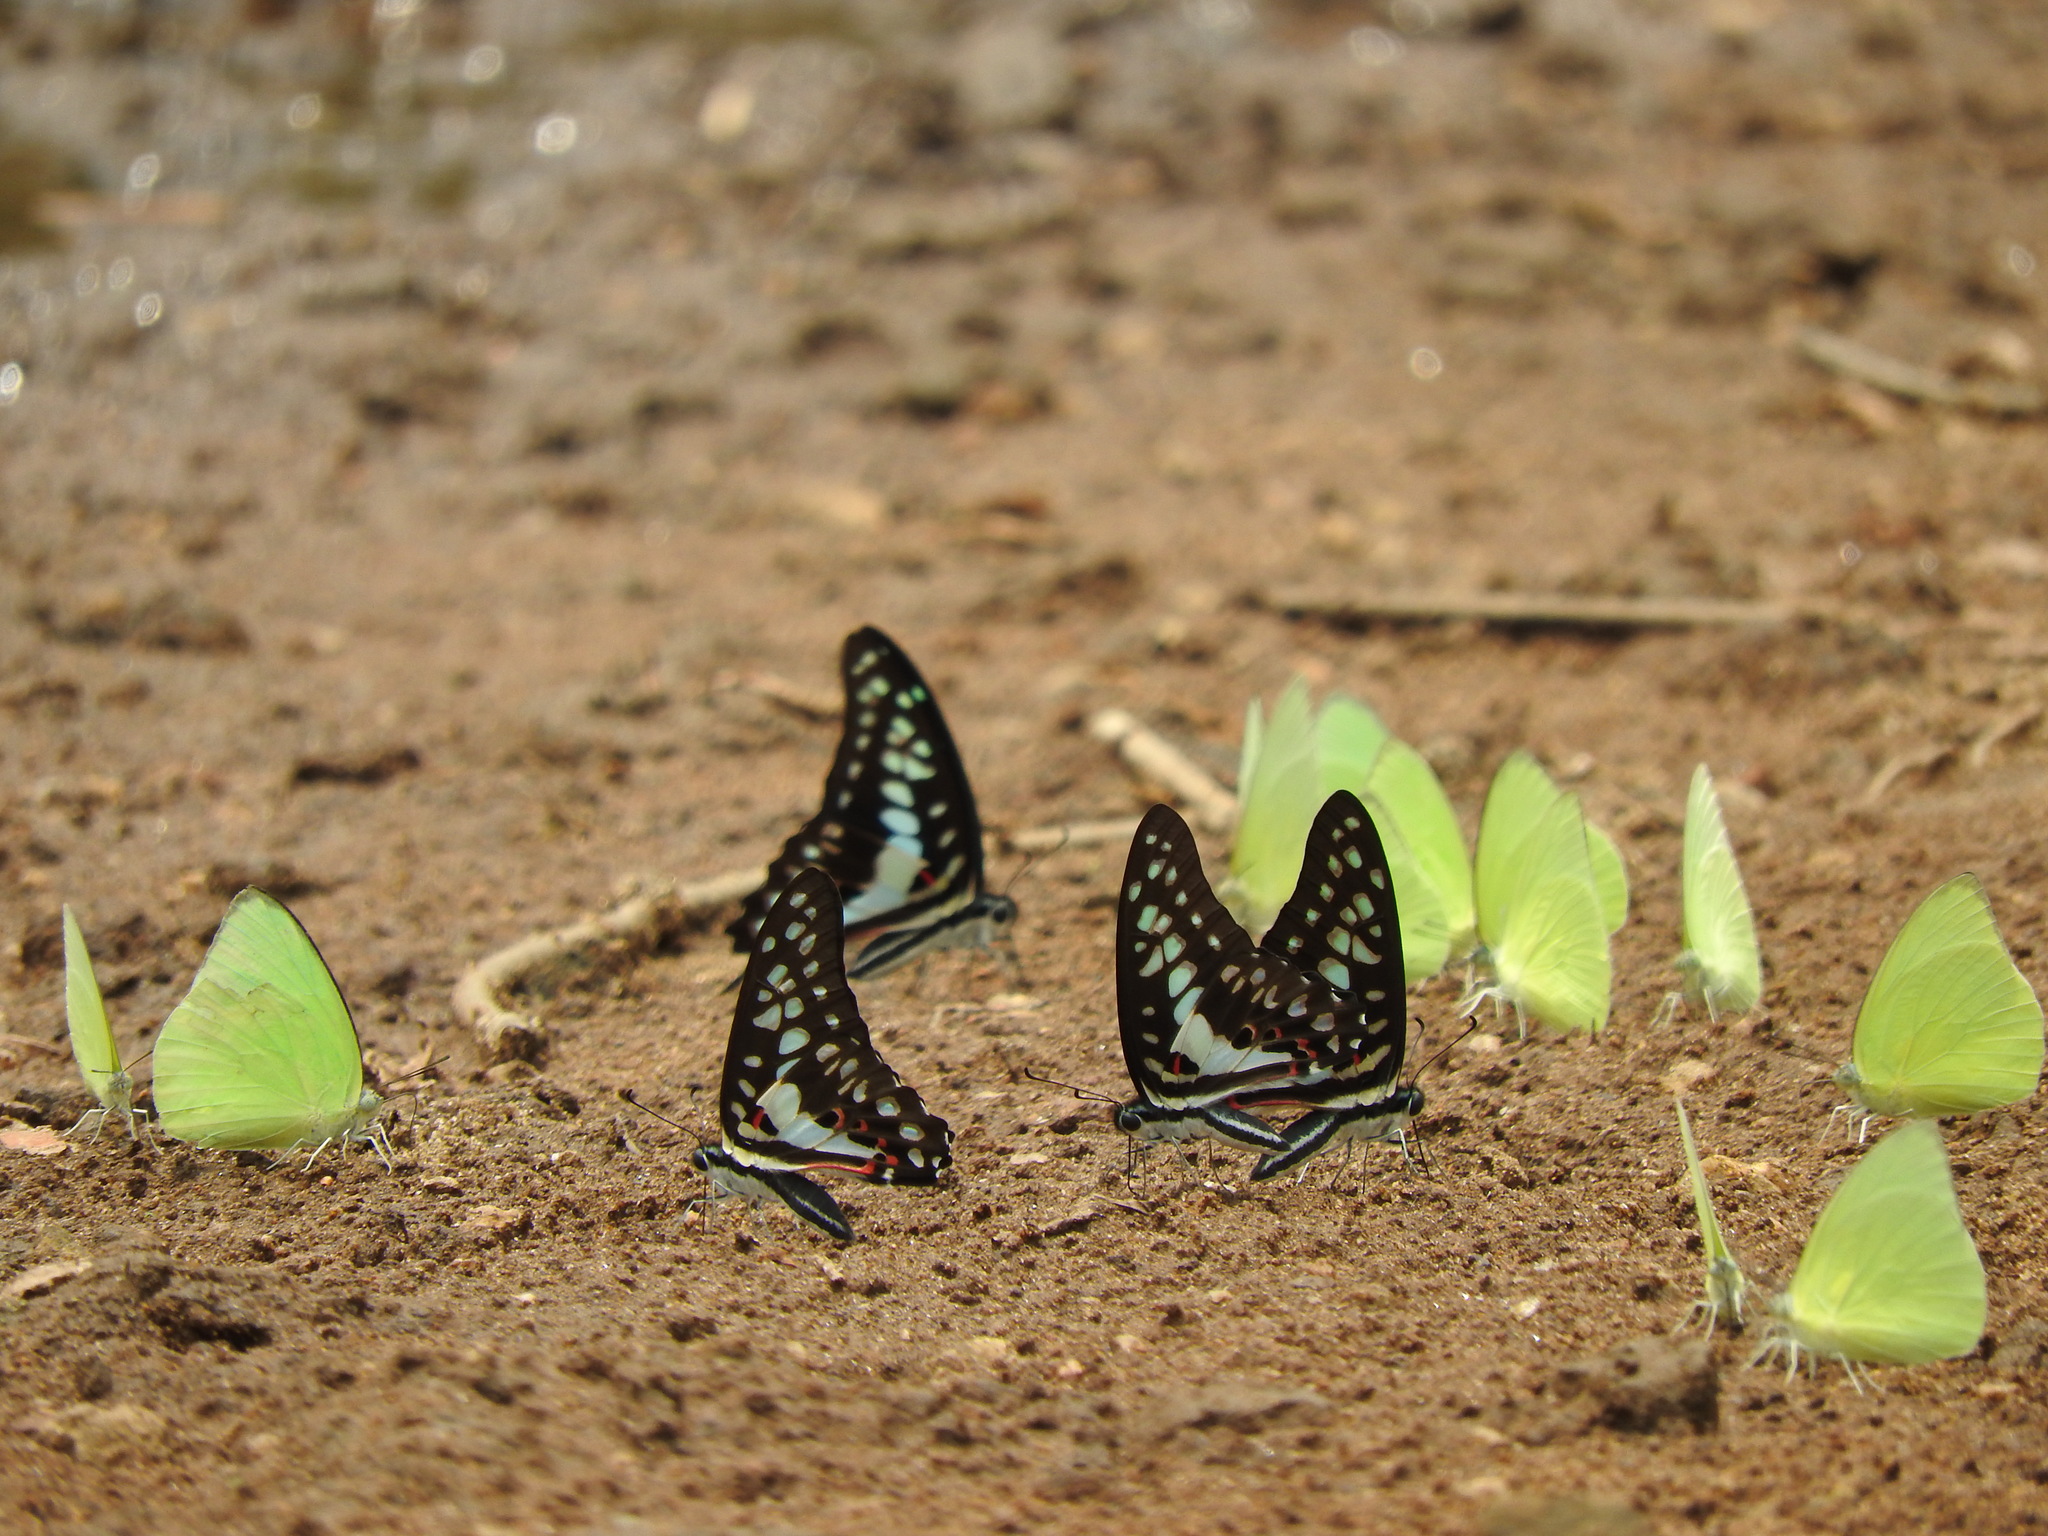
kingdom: Animalia
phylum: Arthropoda
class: Insecta
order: Lepidoptera
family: Papilionidae
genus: Graphium
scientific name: Graphium doson
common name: Common jay
